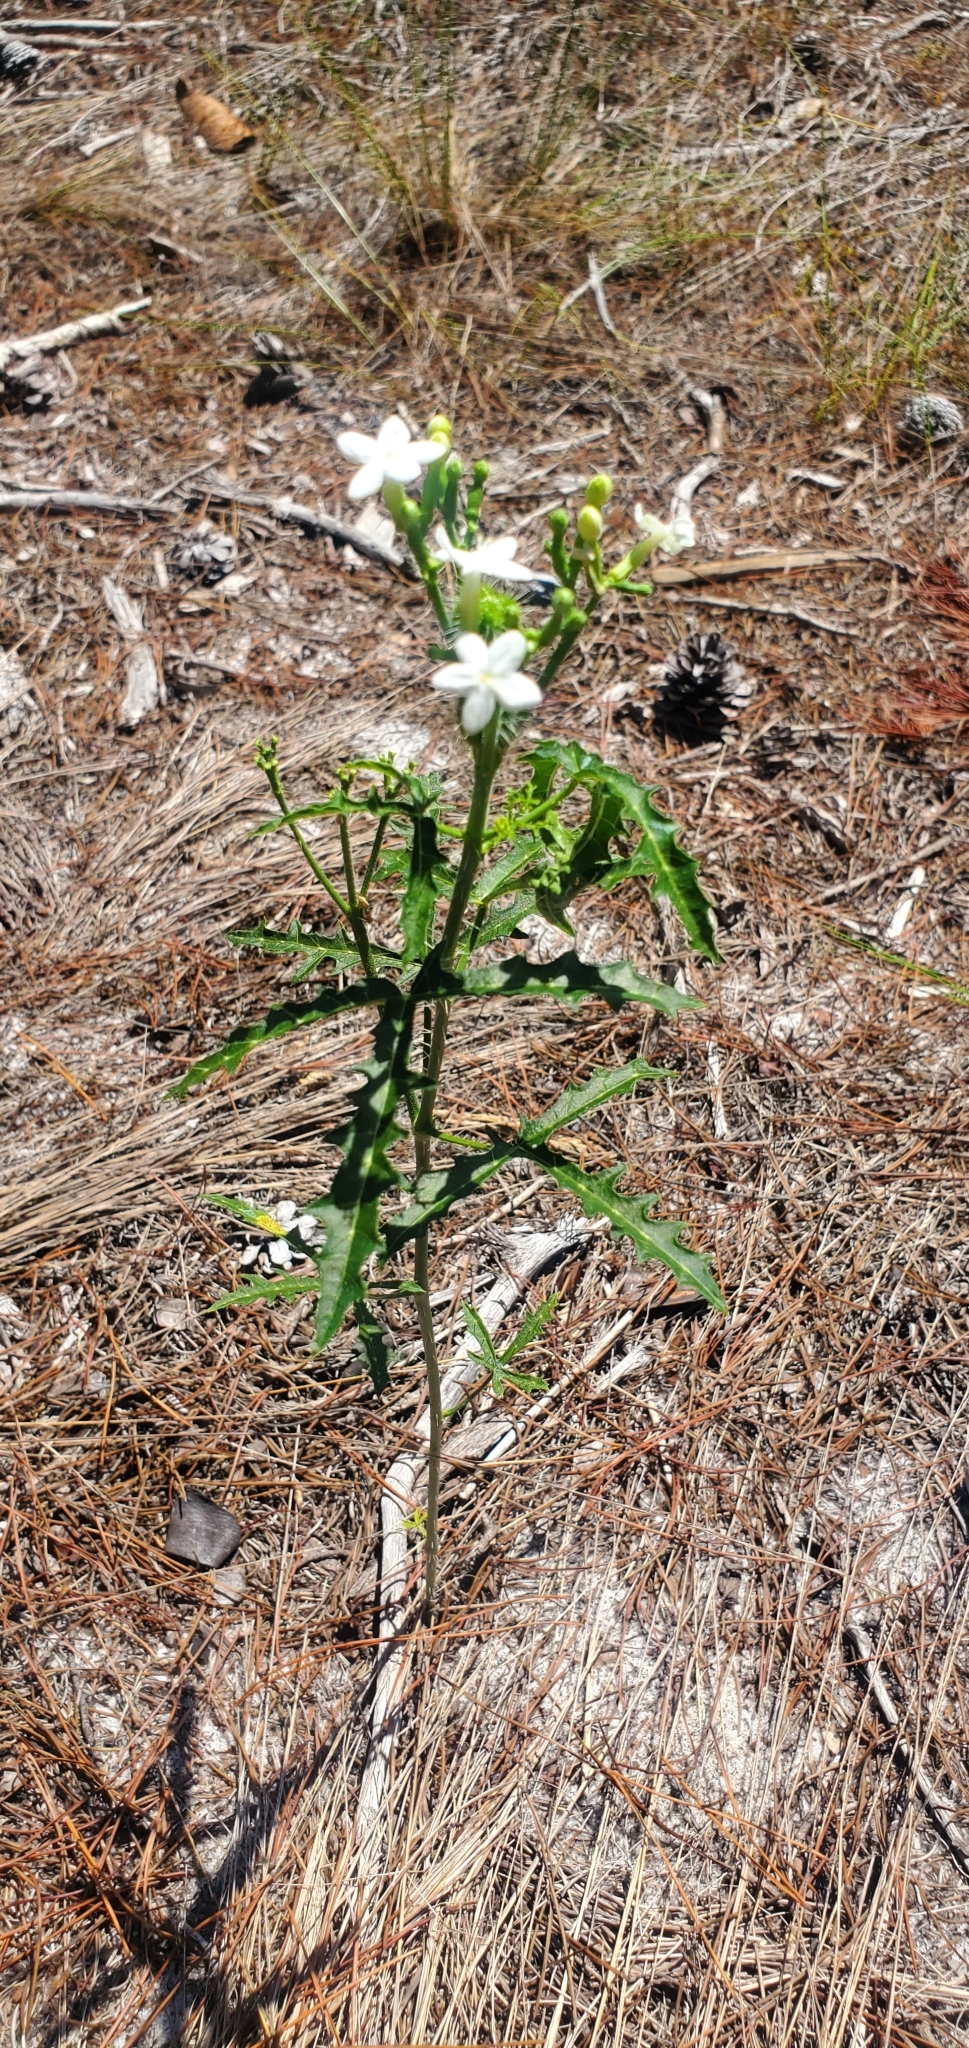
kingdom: Plantae
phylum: Tracheophyta
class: Magnoliopsida
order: Malpighiales
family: Euphorbiaceae
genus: Cnidoscolus
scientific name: Cnidoscolus stimulosus
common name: Bull-nettle
